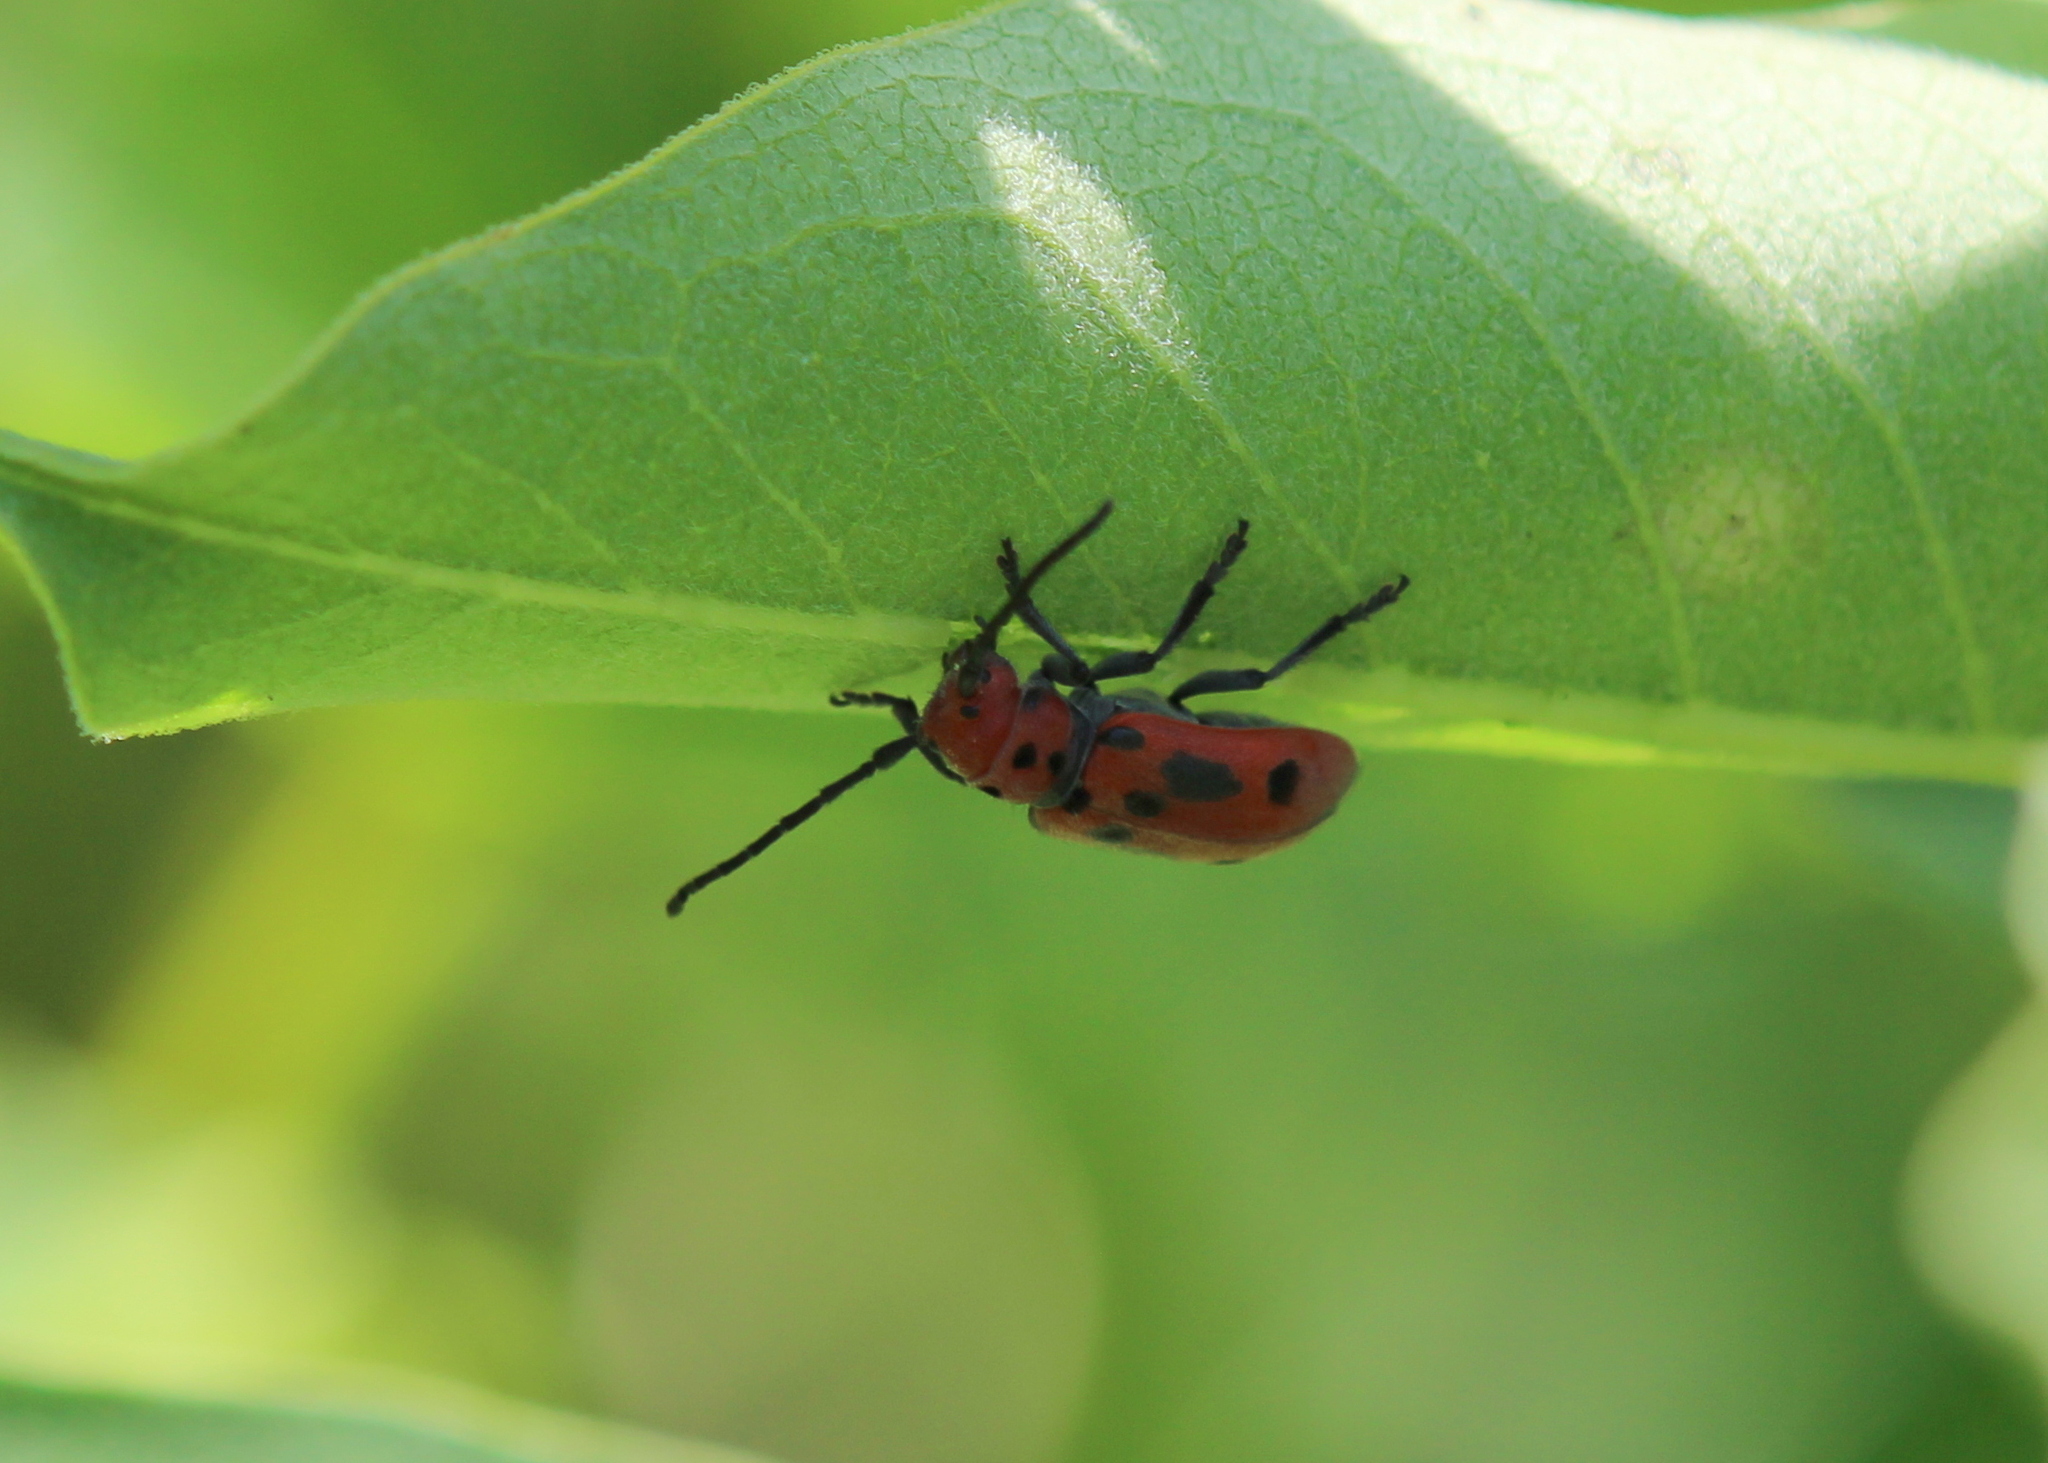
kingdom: Animalia
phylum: Arthropoda
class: Insecta
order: Coleoptera
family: Cerambycidae
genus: Tetraopes
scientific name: Tetraopes tetrophthalmus
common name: Red milkweed beetle
